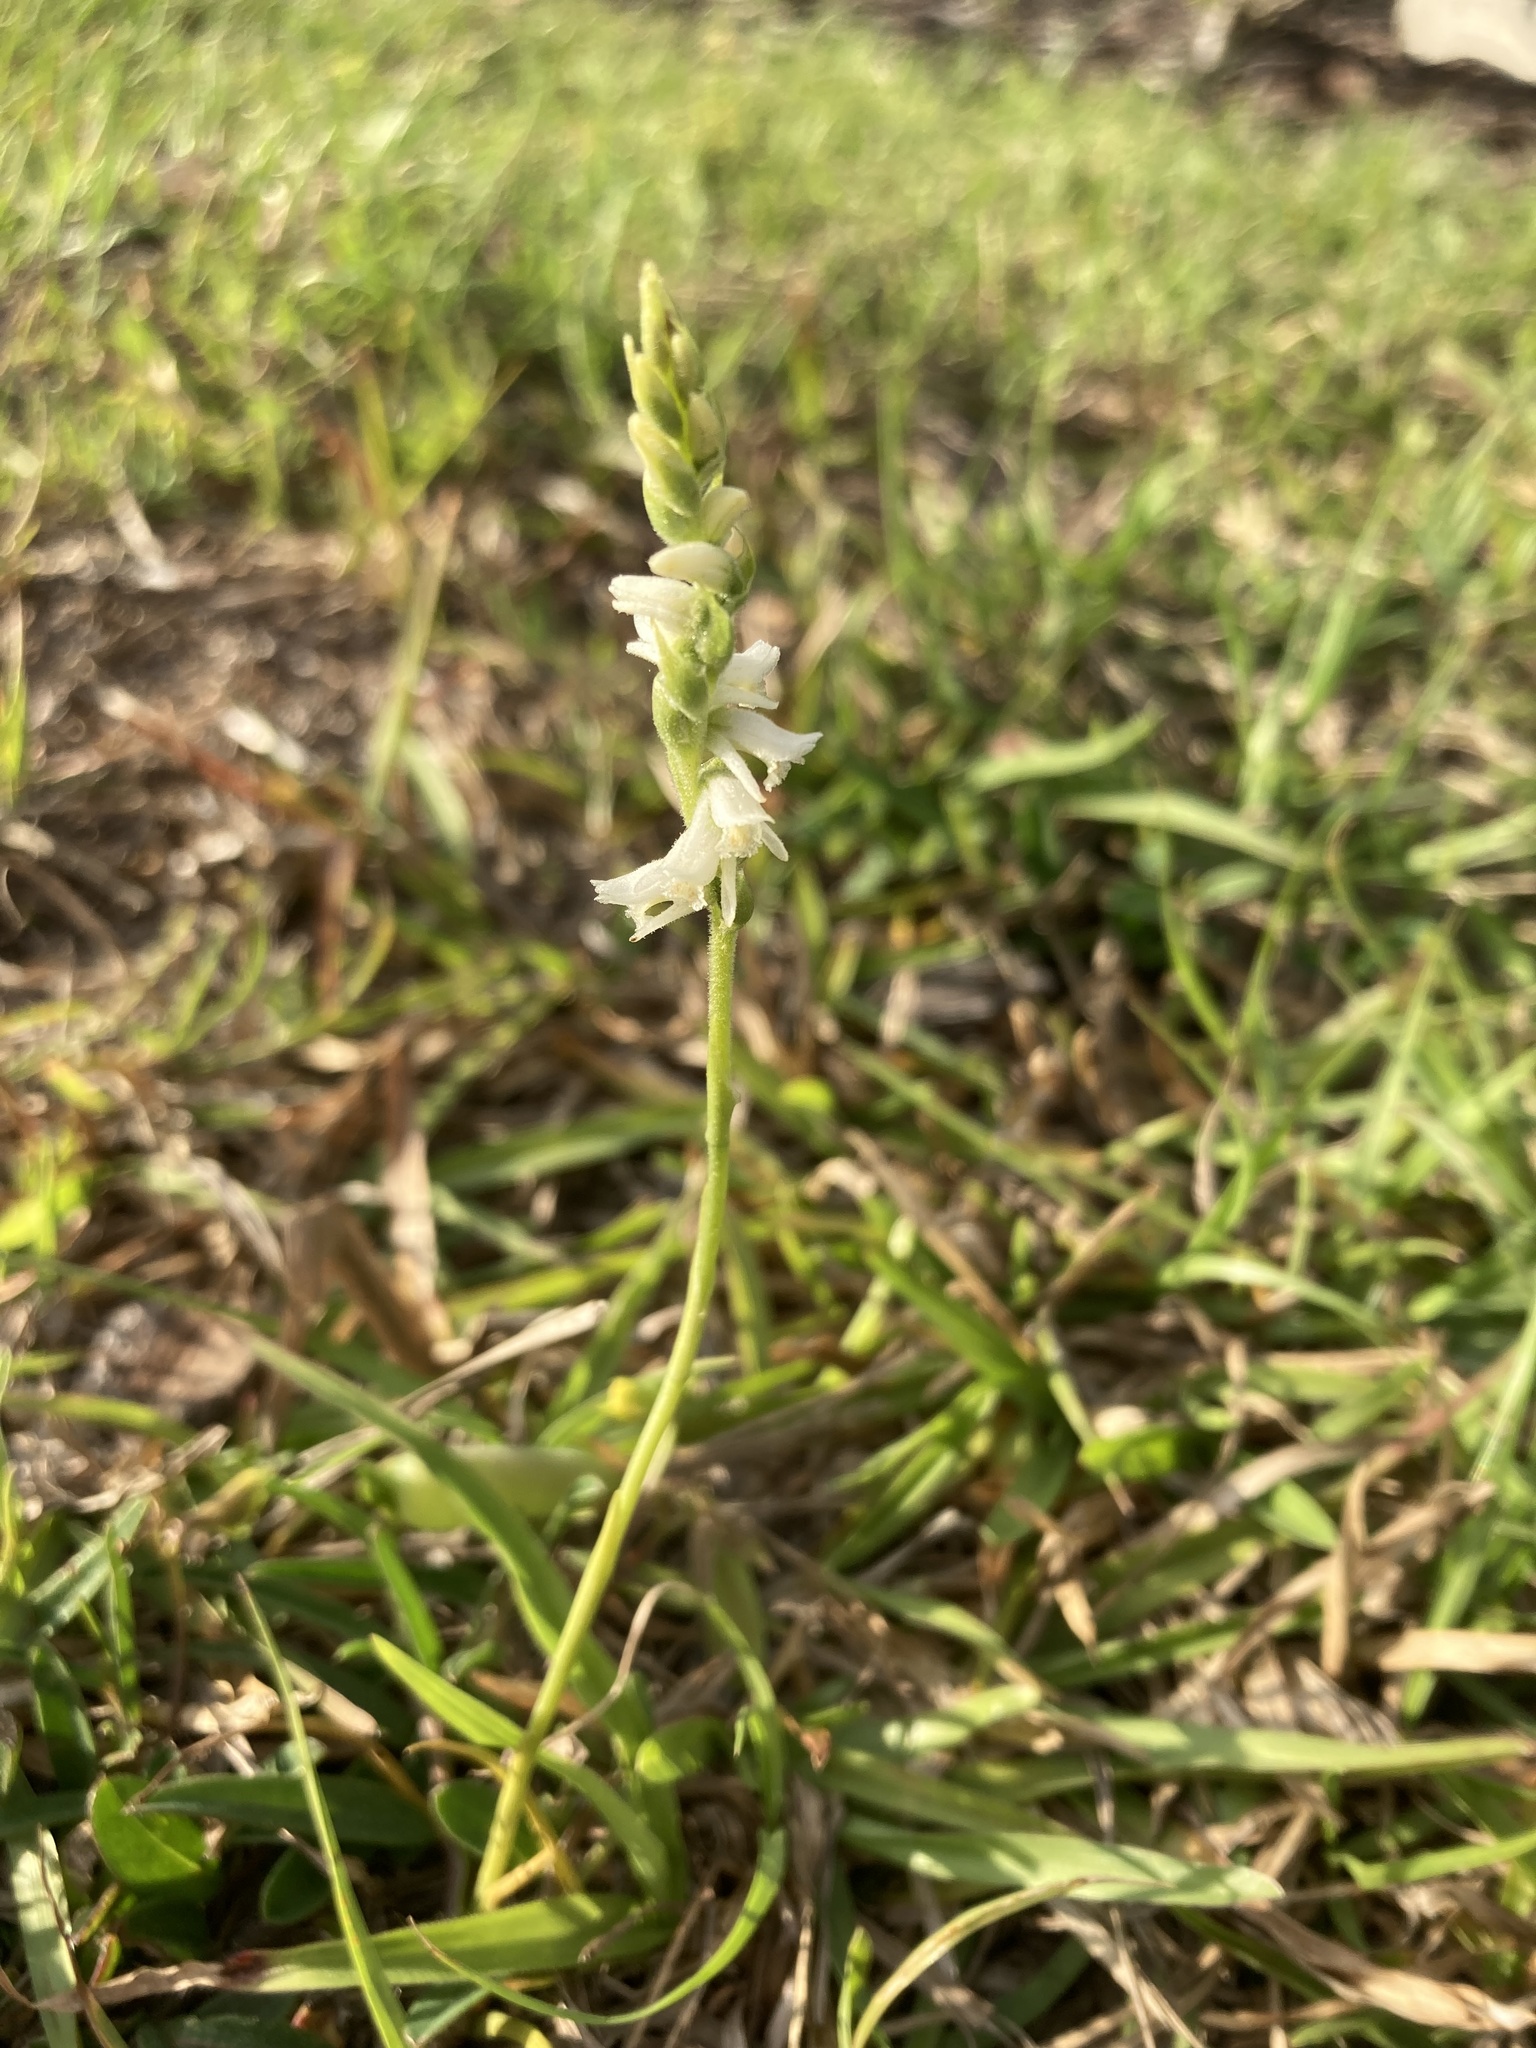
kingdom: Plantae
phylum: Tracheophyta
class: Liliopsida
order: Asparagales
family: Orchidaceae
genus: Spiranthes
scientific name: Spiranthes vernalis
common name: Spring ladies'-tresses
